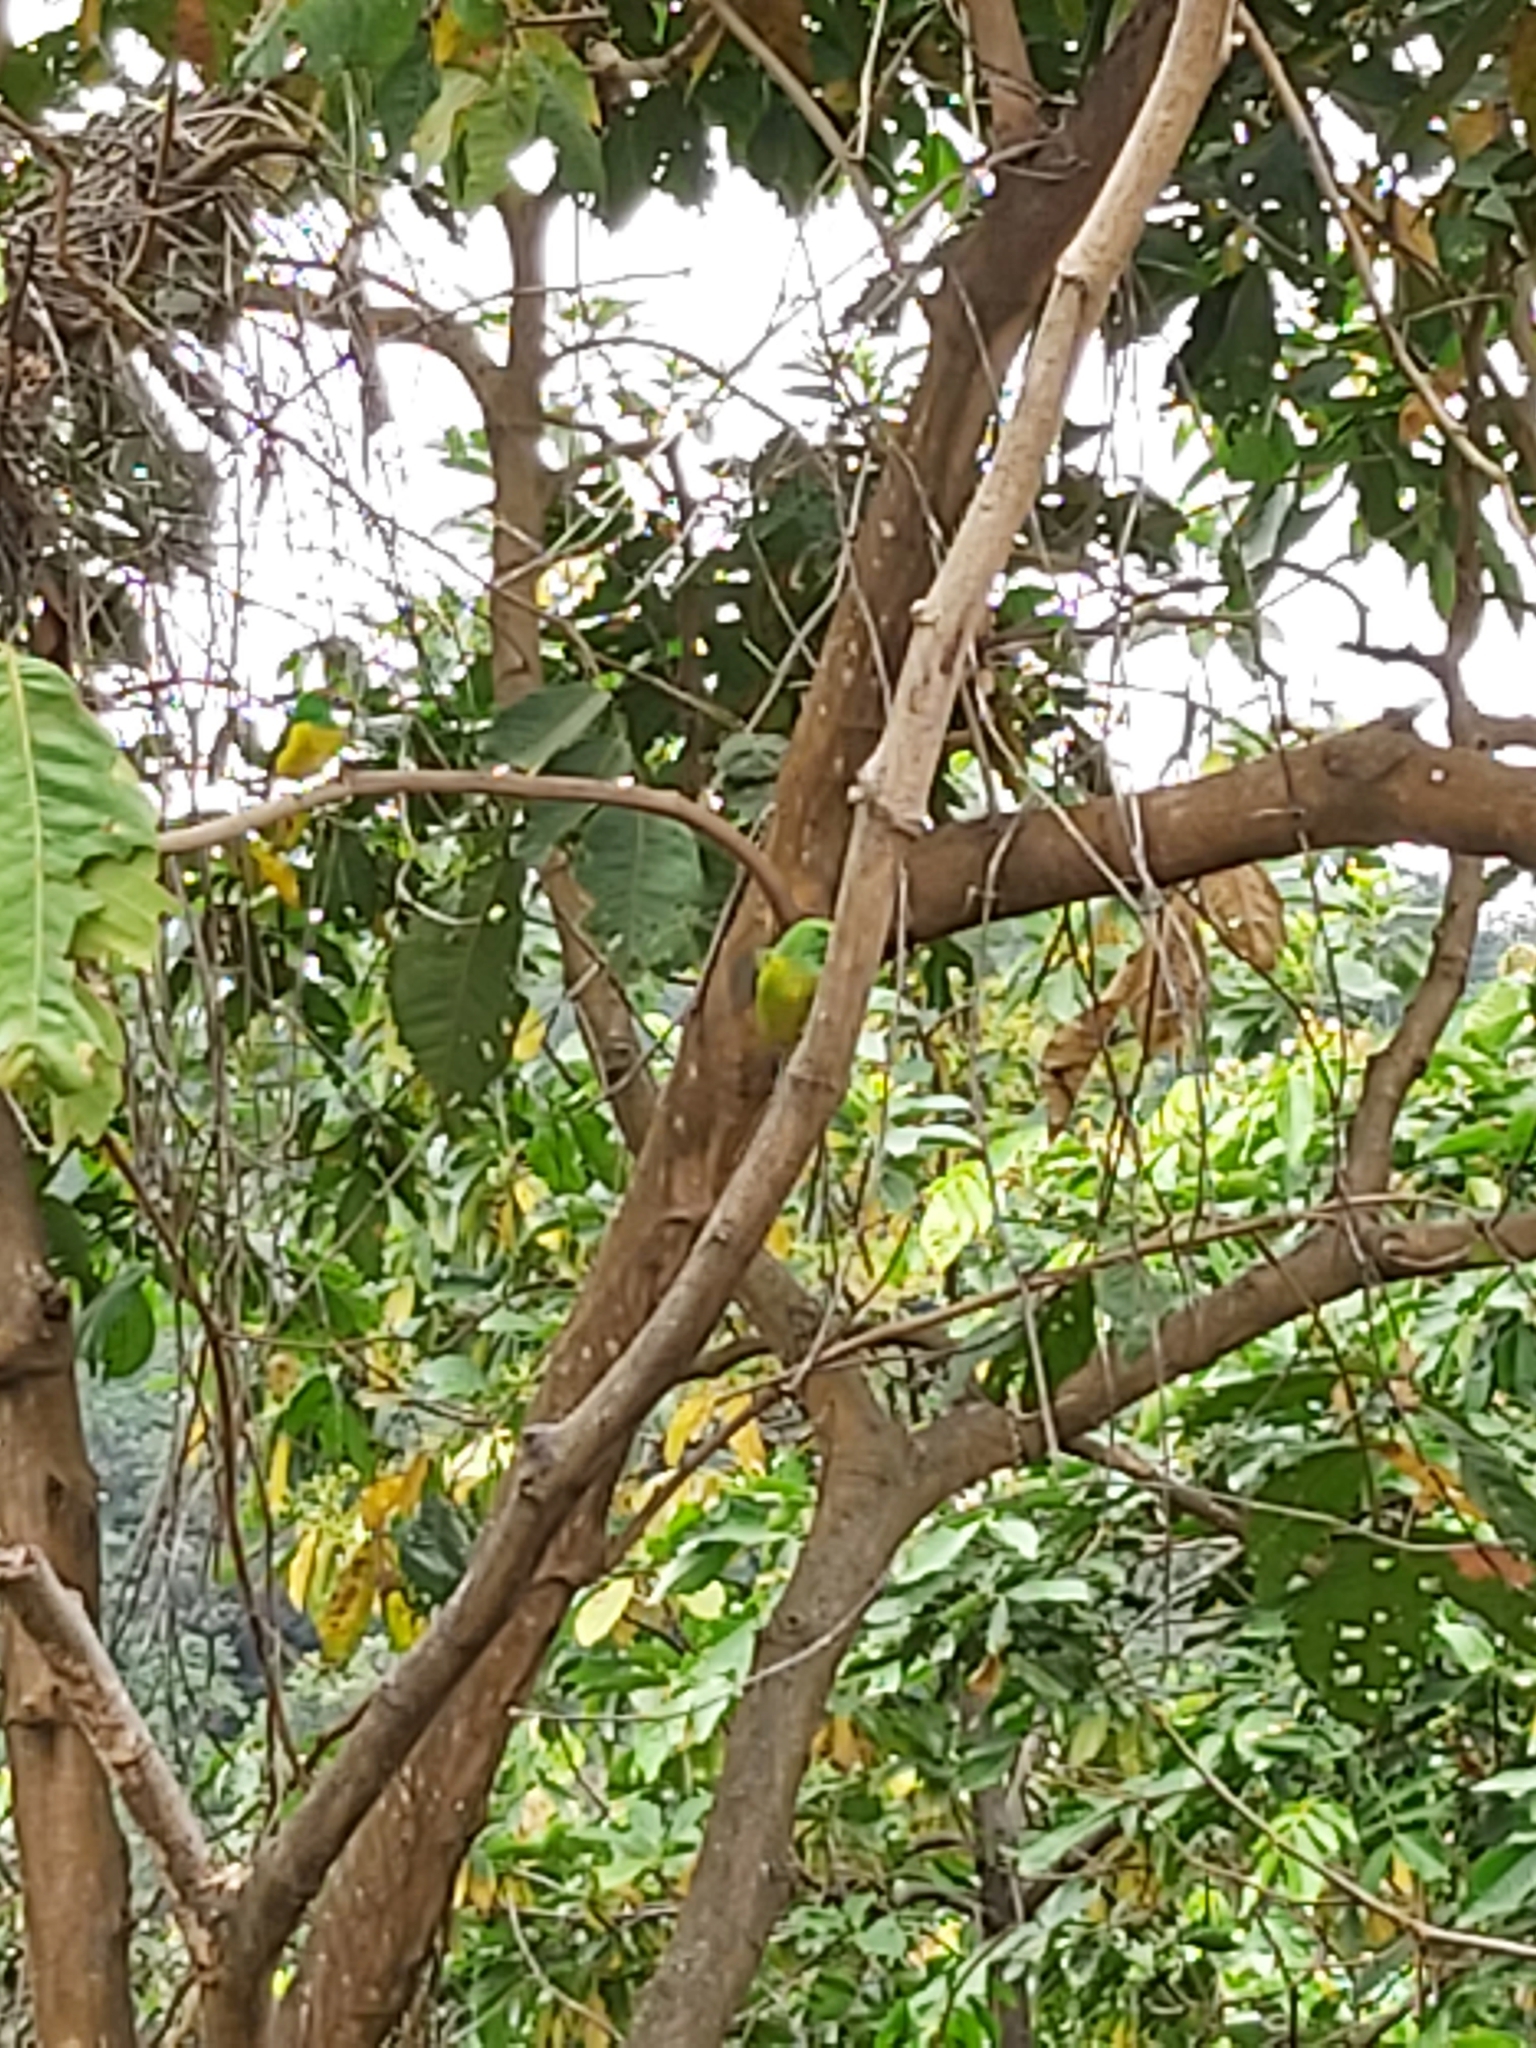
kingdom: Animalia
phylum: Chordata
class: Aves
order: Passeriformes
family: Fringillidae
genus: Chlorophonia
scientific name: Chlorophonia cyanea
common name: Blue-naped chlorophonia
